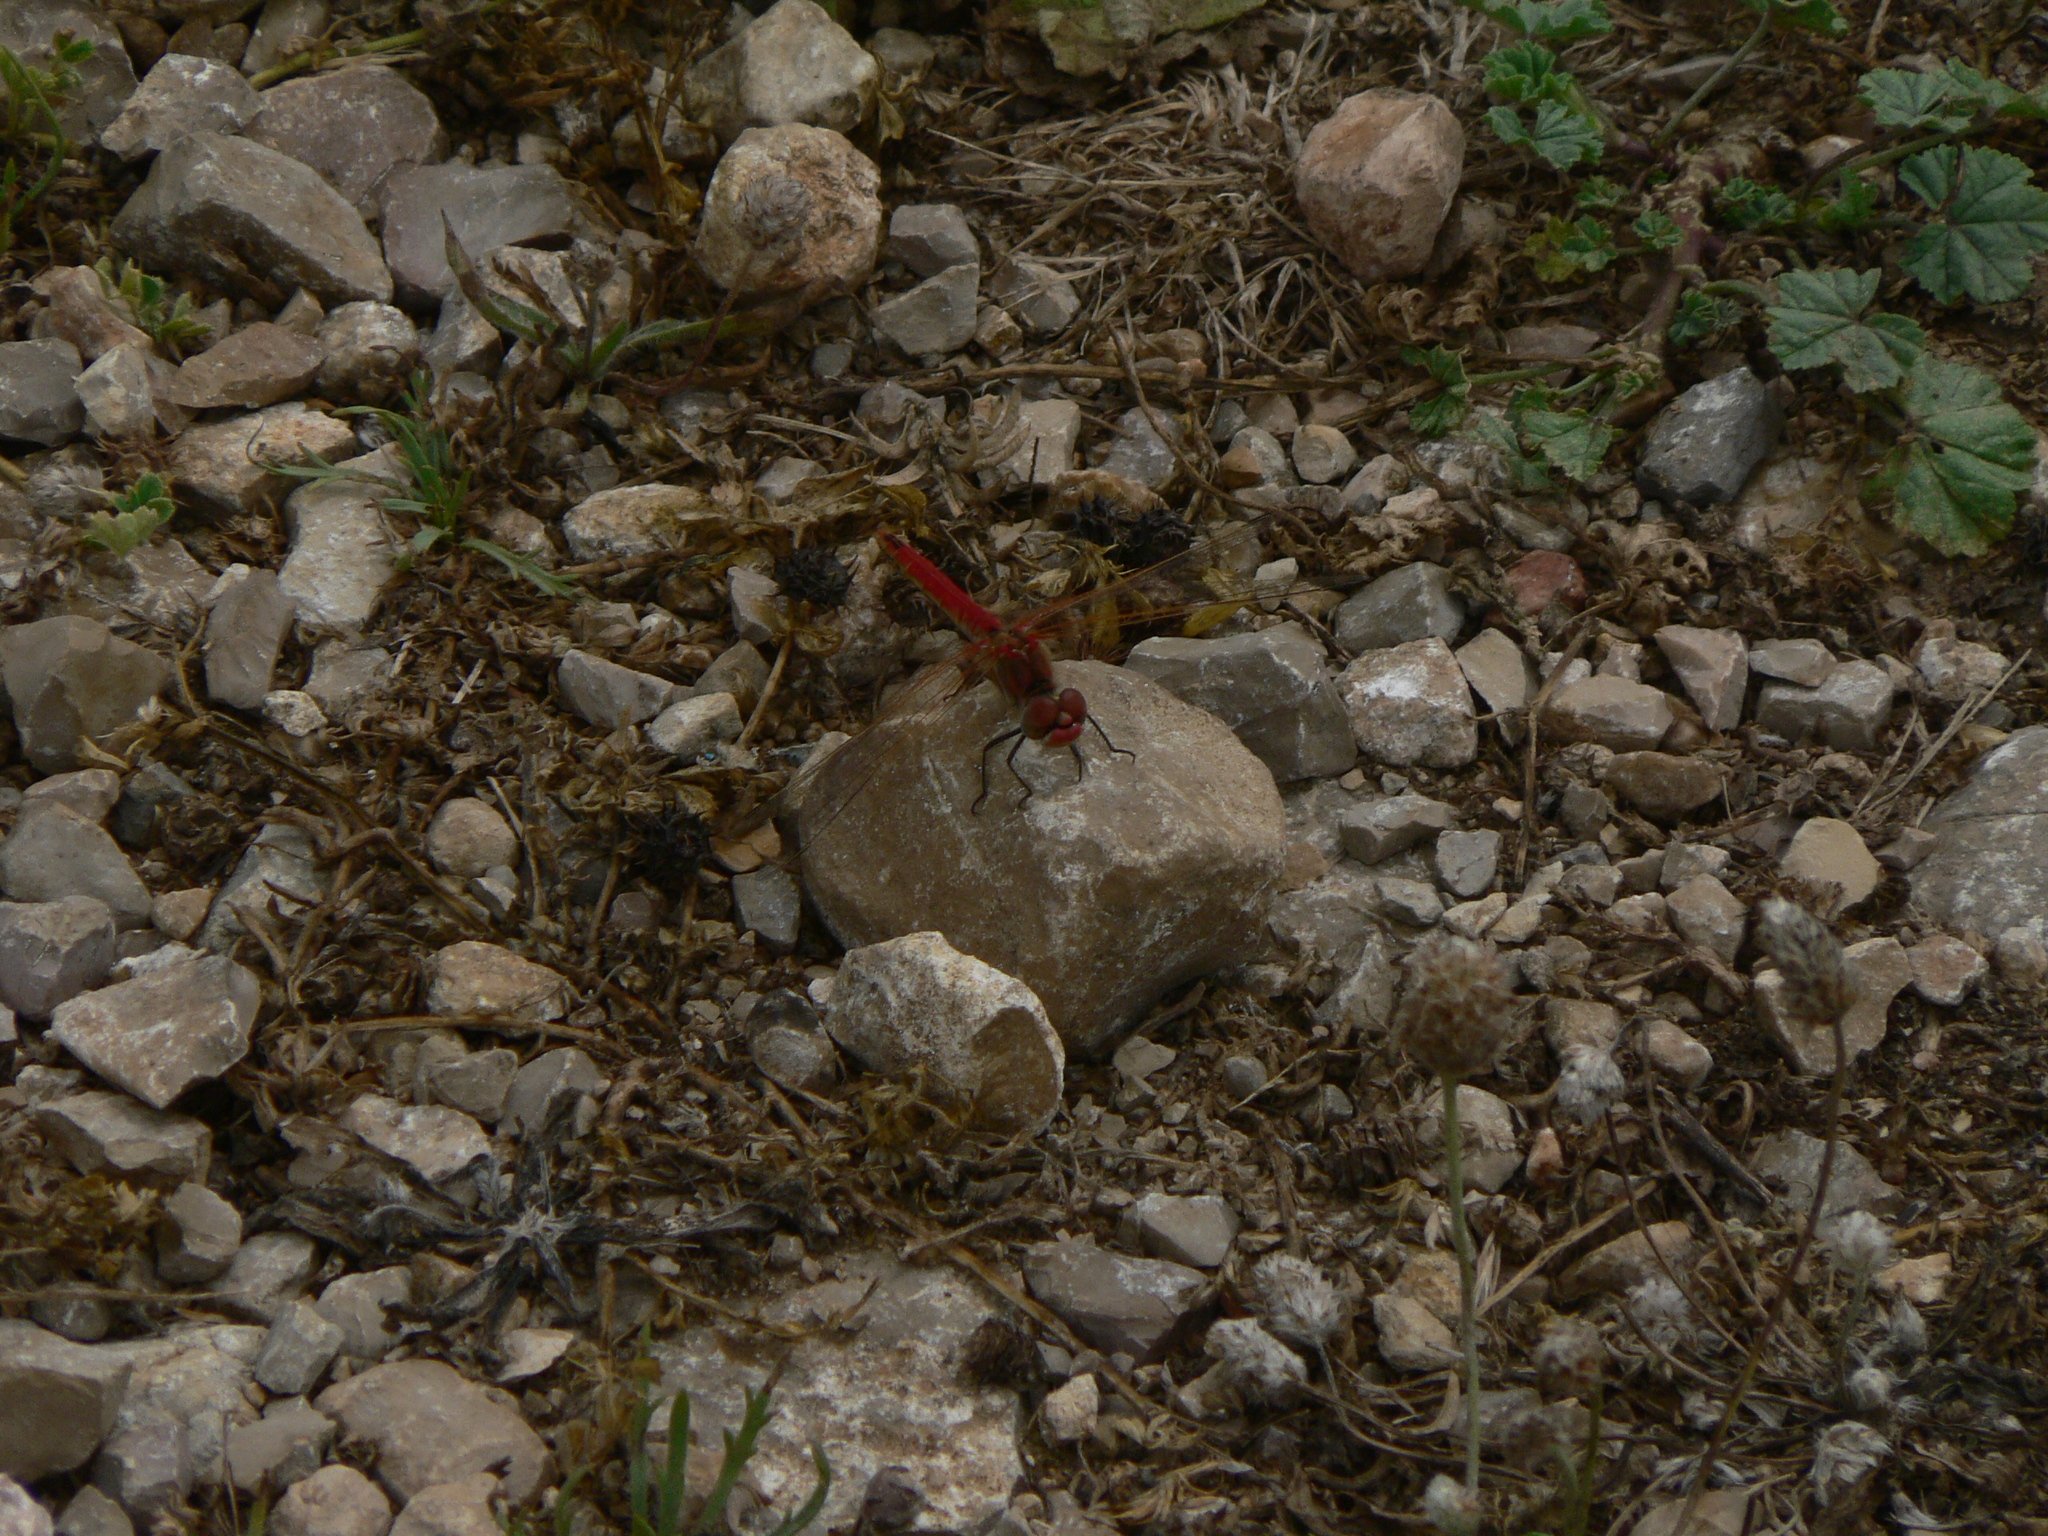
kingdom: Animalia
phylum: Arthropoda
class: Insecta
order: Odonata
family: Libellulidae
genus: Sympetrum
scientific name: Sympetrum fonscolombii
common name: Red-veined darter
